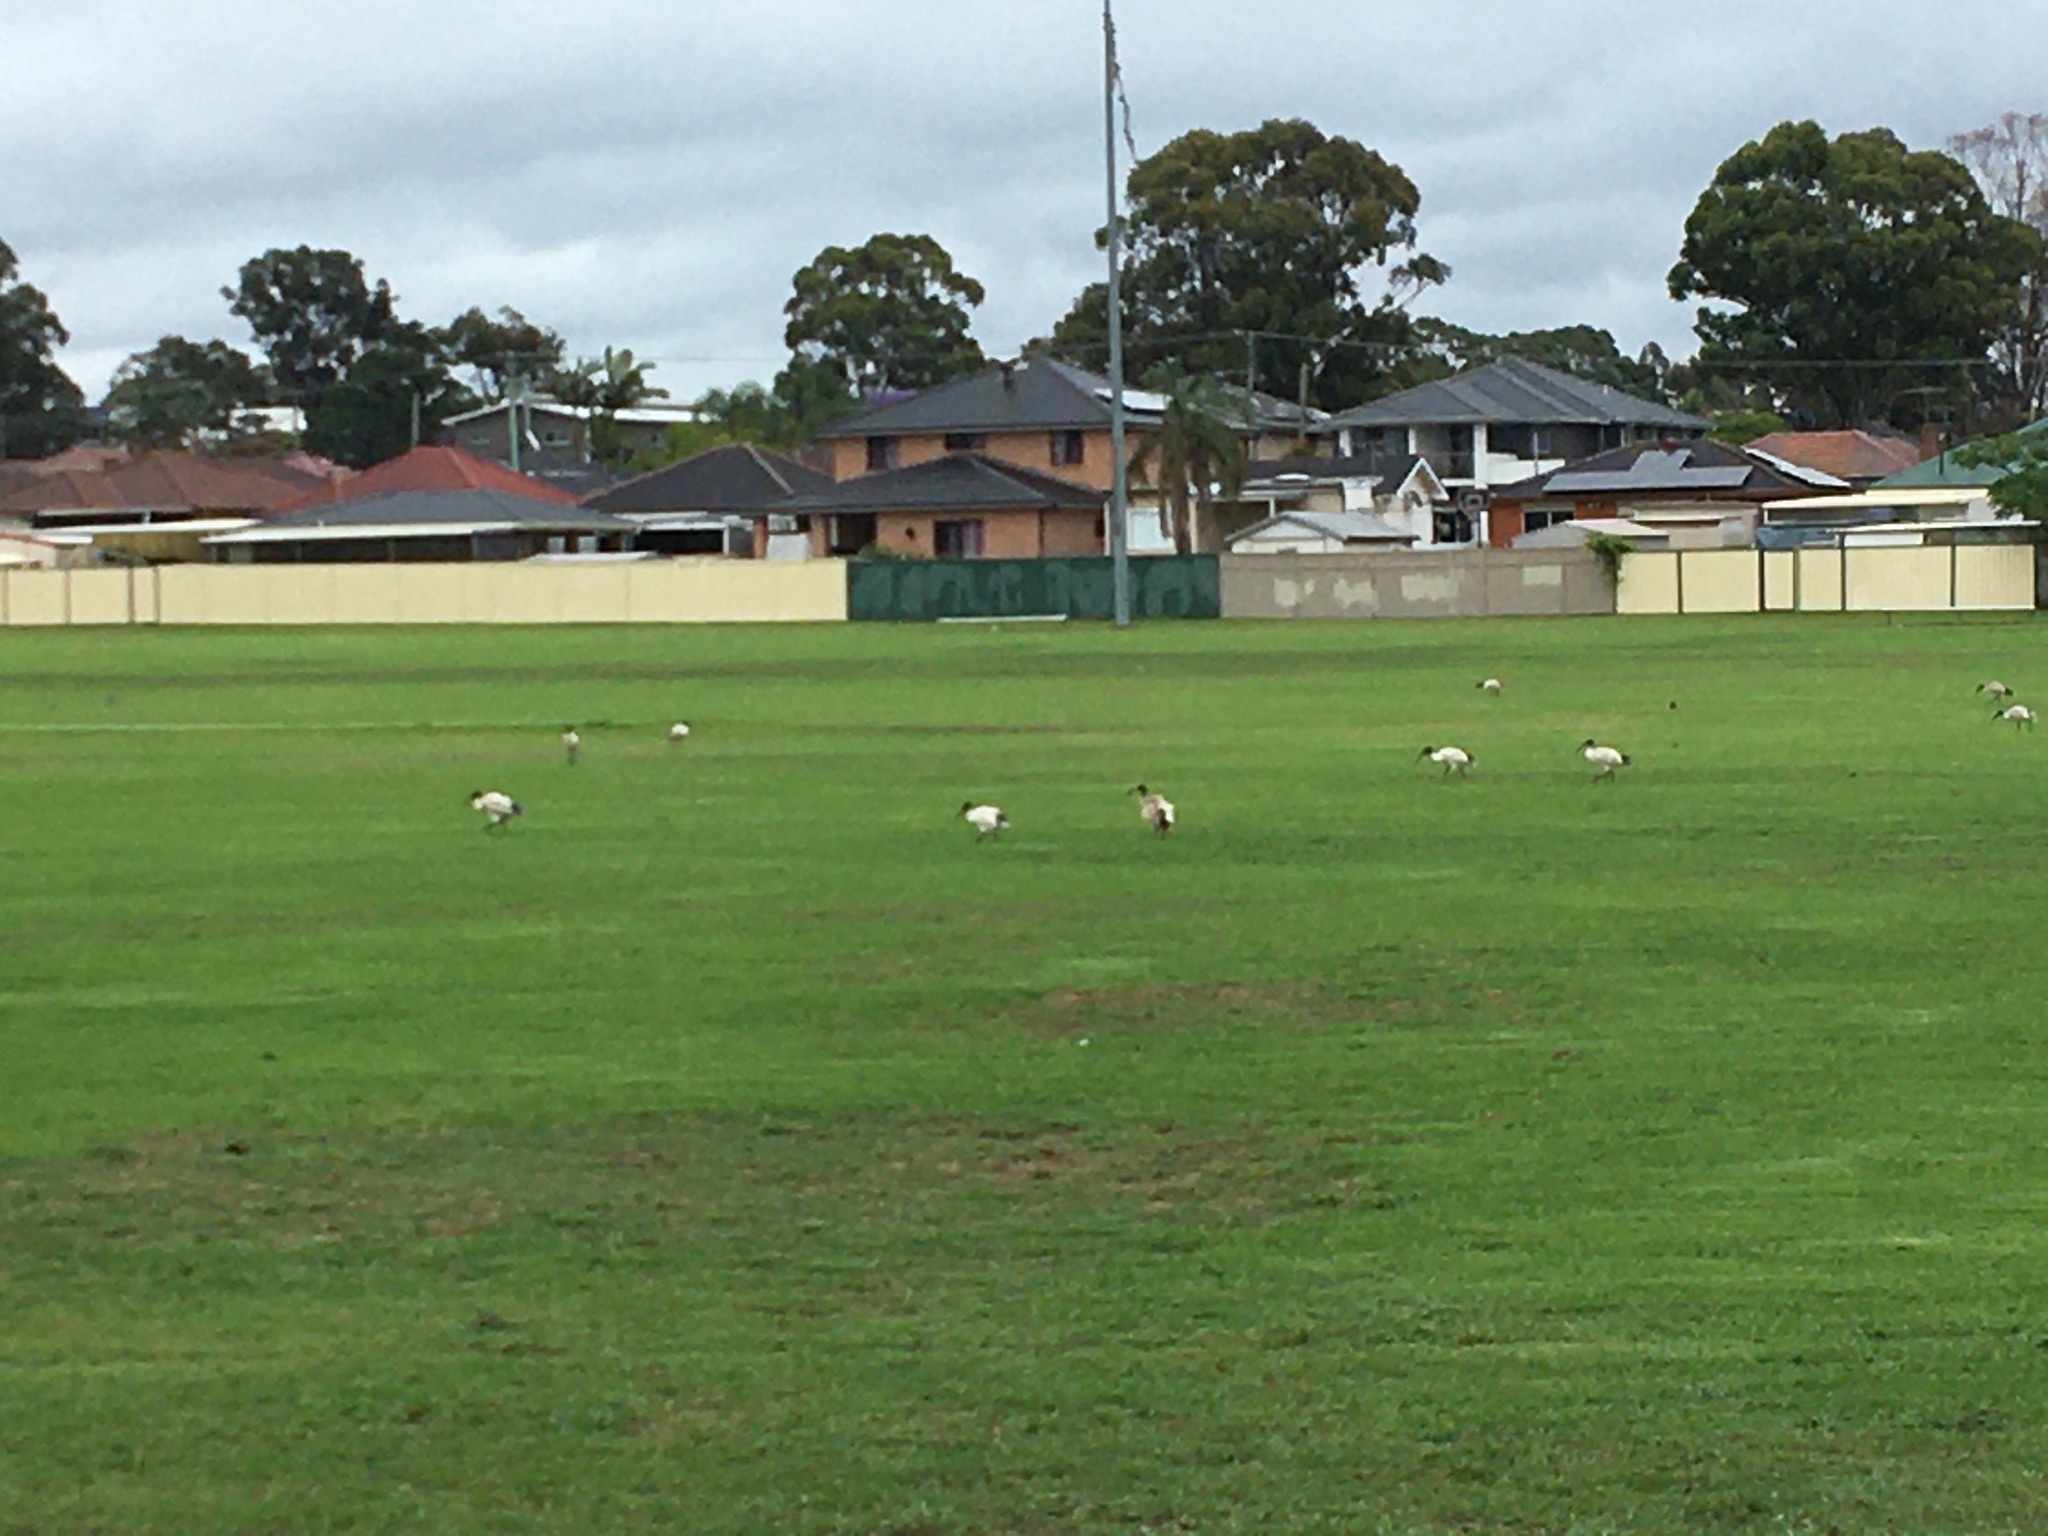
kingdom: Animalia
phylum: Chordata
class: Aves
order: Pelecaniformes
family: Threskiornithidae
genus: Threskiornis
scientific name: Threskiornis molucca
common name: Australian white ibis
